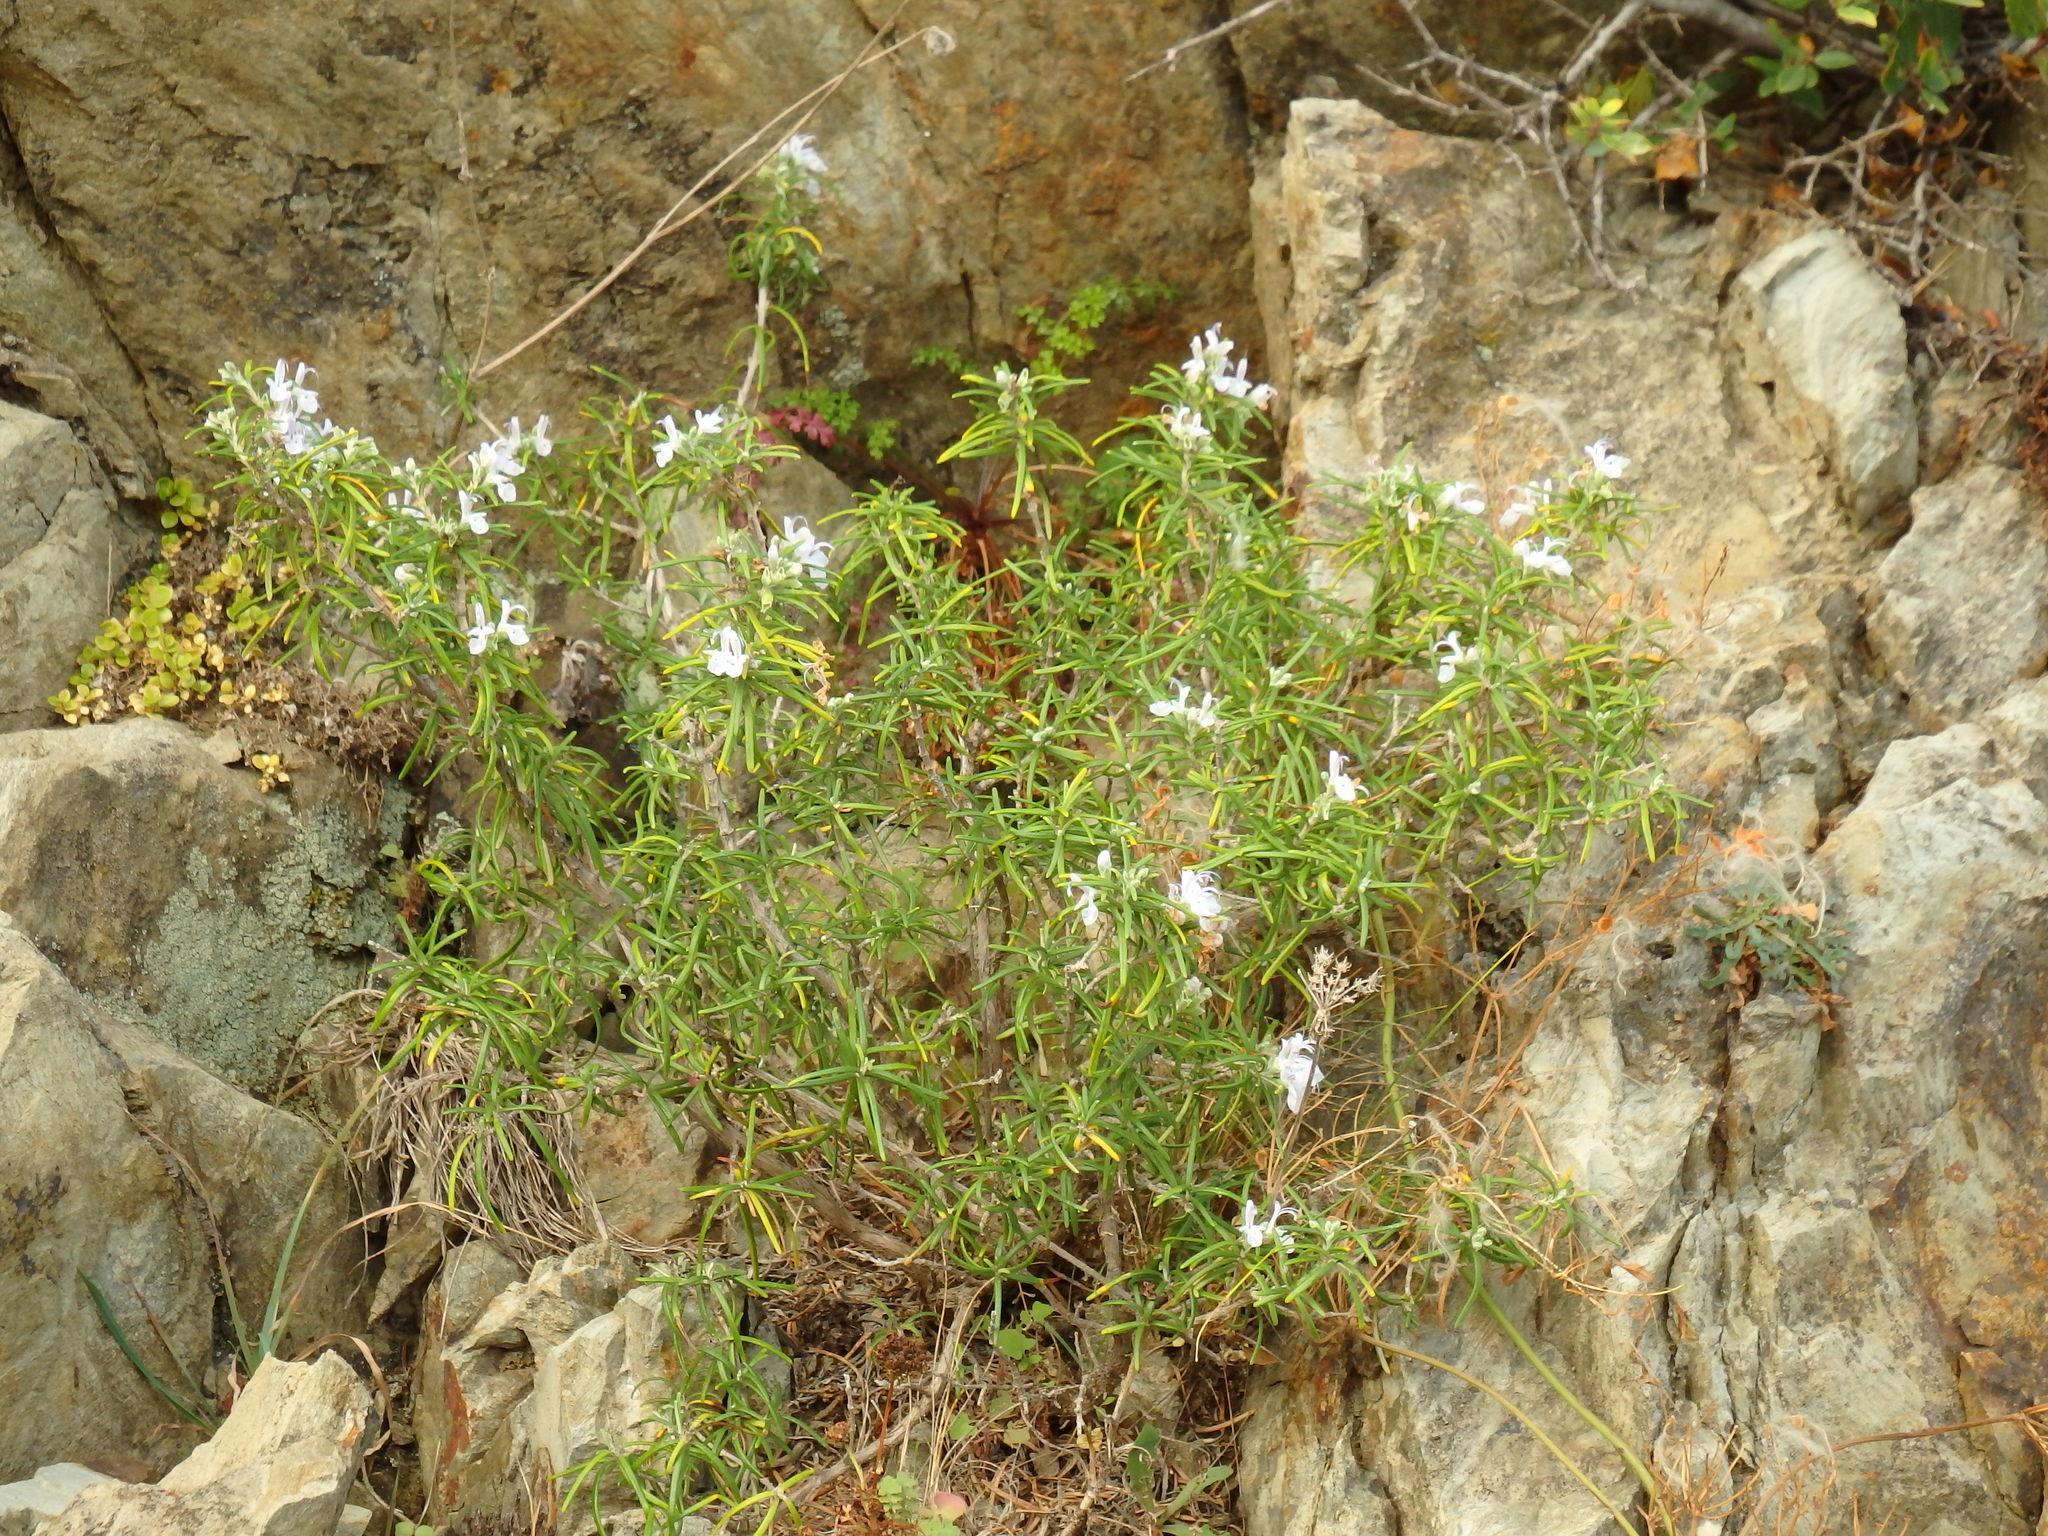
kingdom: Plantae
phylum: Tracheophyta
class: Magnoliopsida
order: Lamiales
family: Lamiaceae
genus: Salvia
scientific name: Salvia rosmarinus
